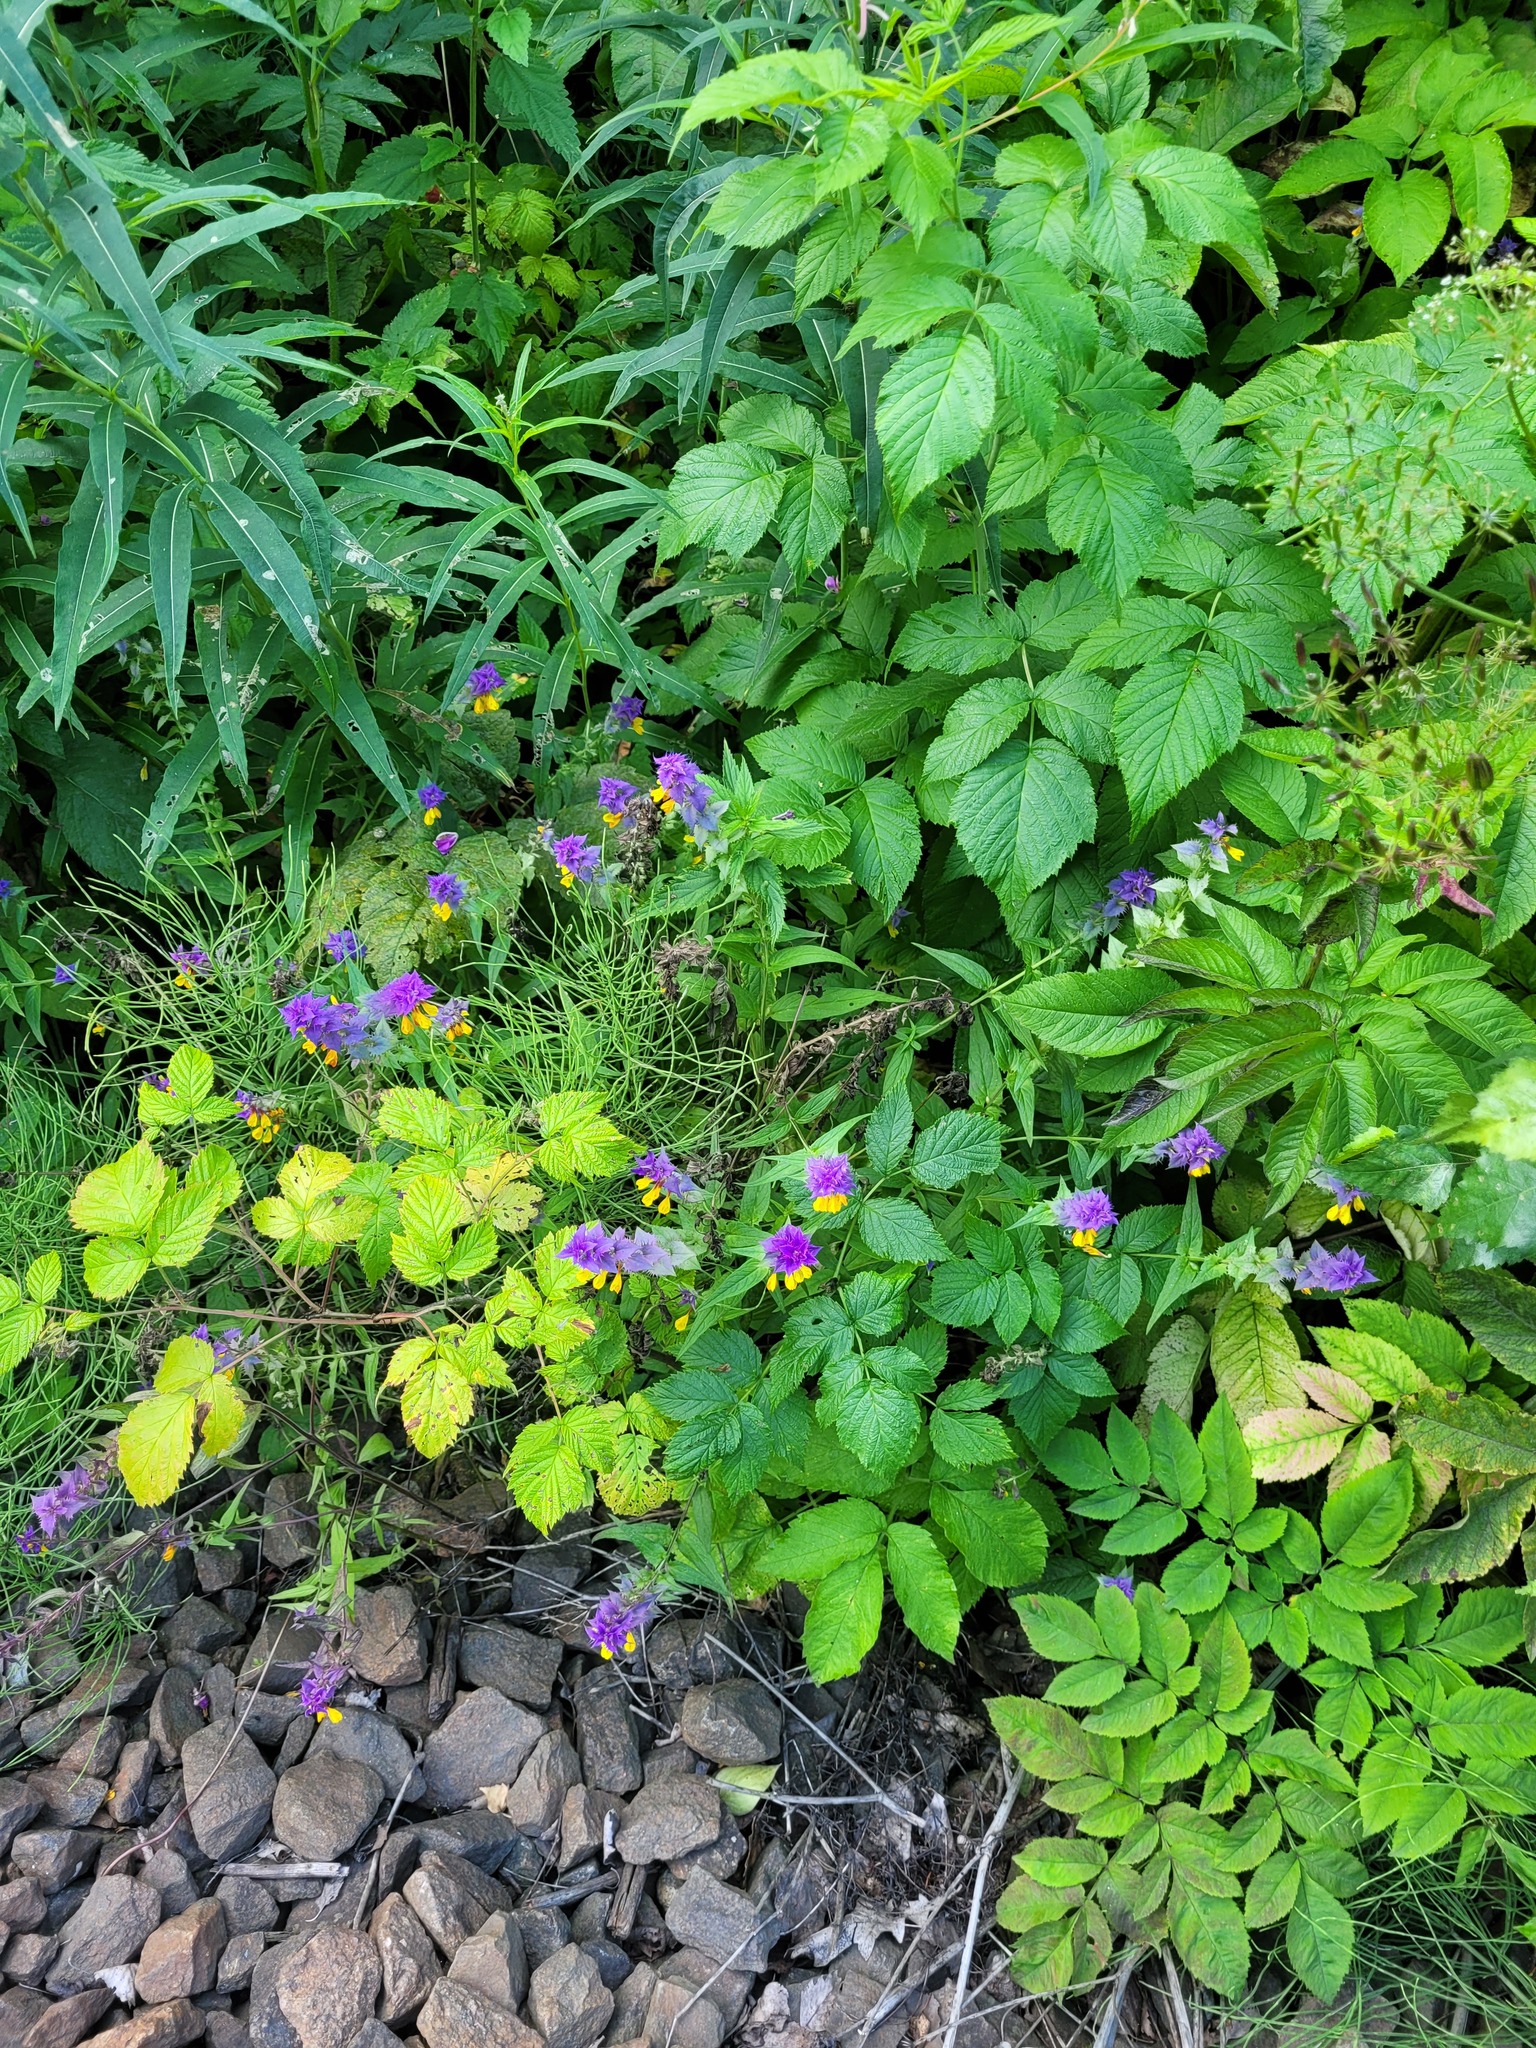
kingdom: Plantae
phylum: Tracheophyta
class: Magnoliopsida
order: Lamiales
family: Orobanchaceae
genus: Melampyrum
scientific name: Melampyrum nemorosum
